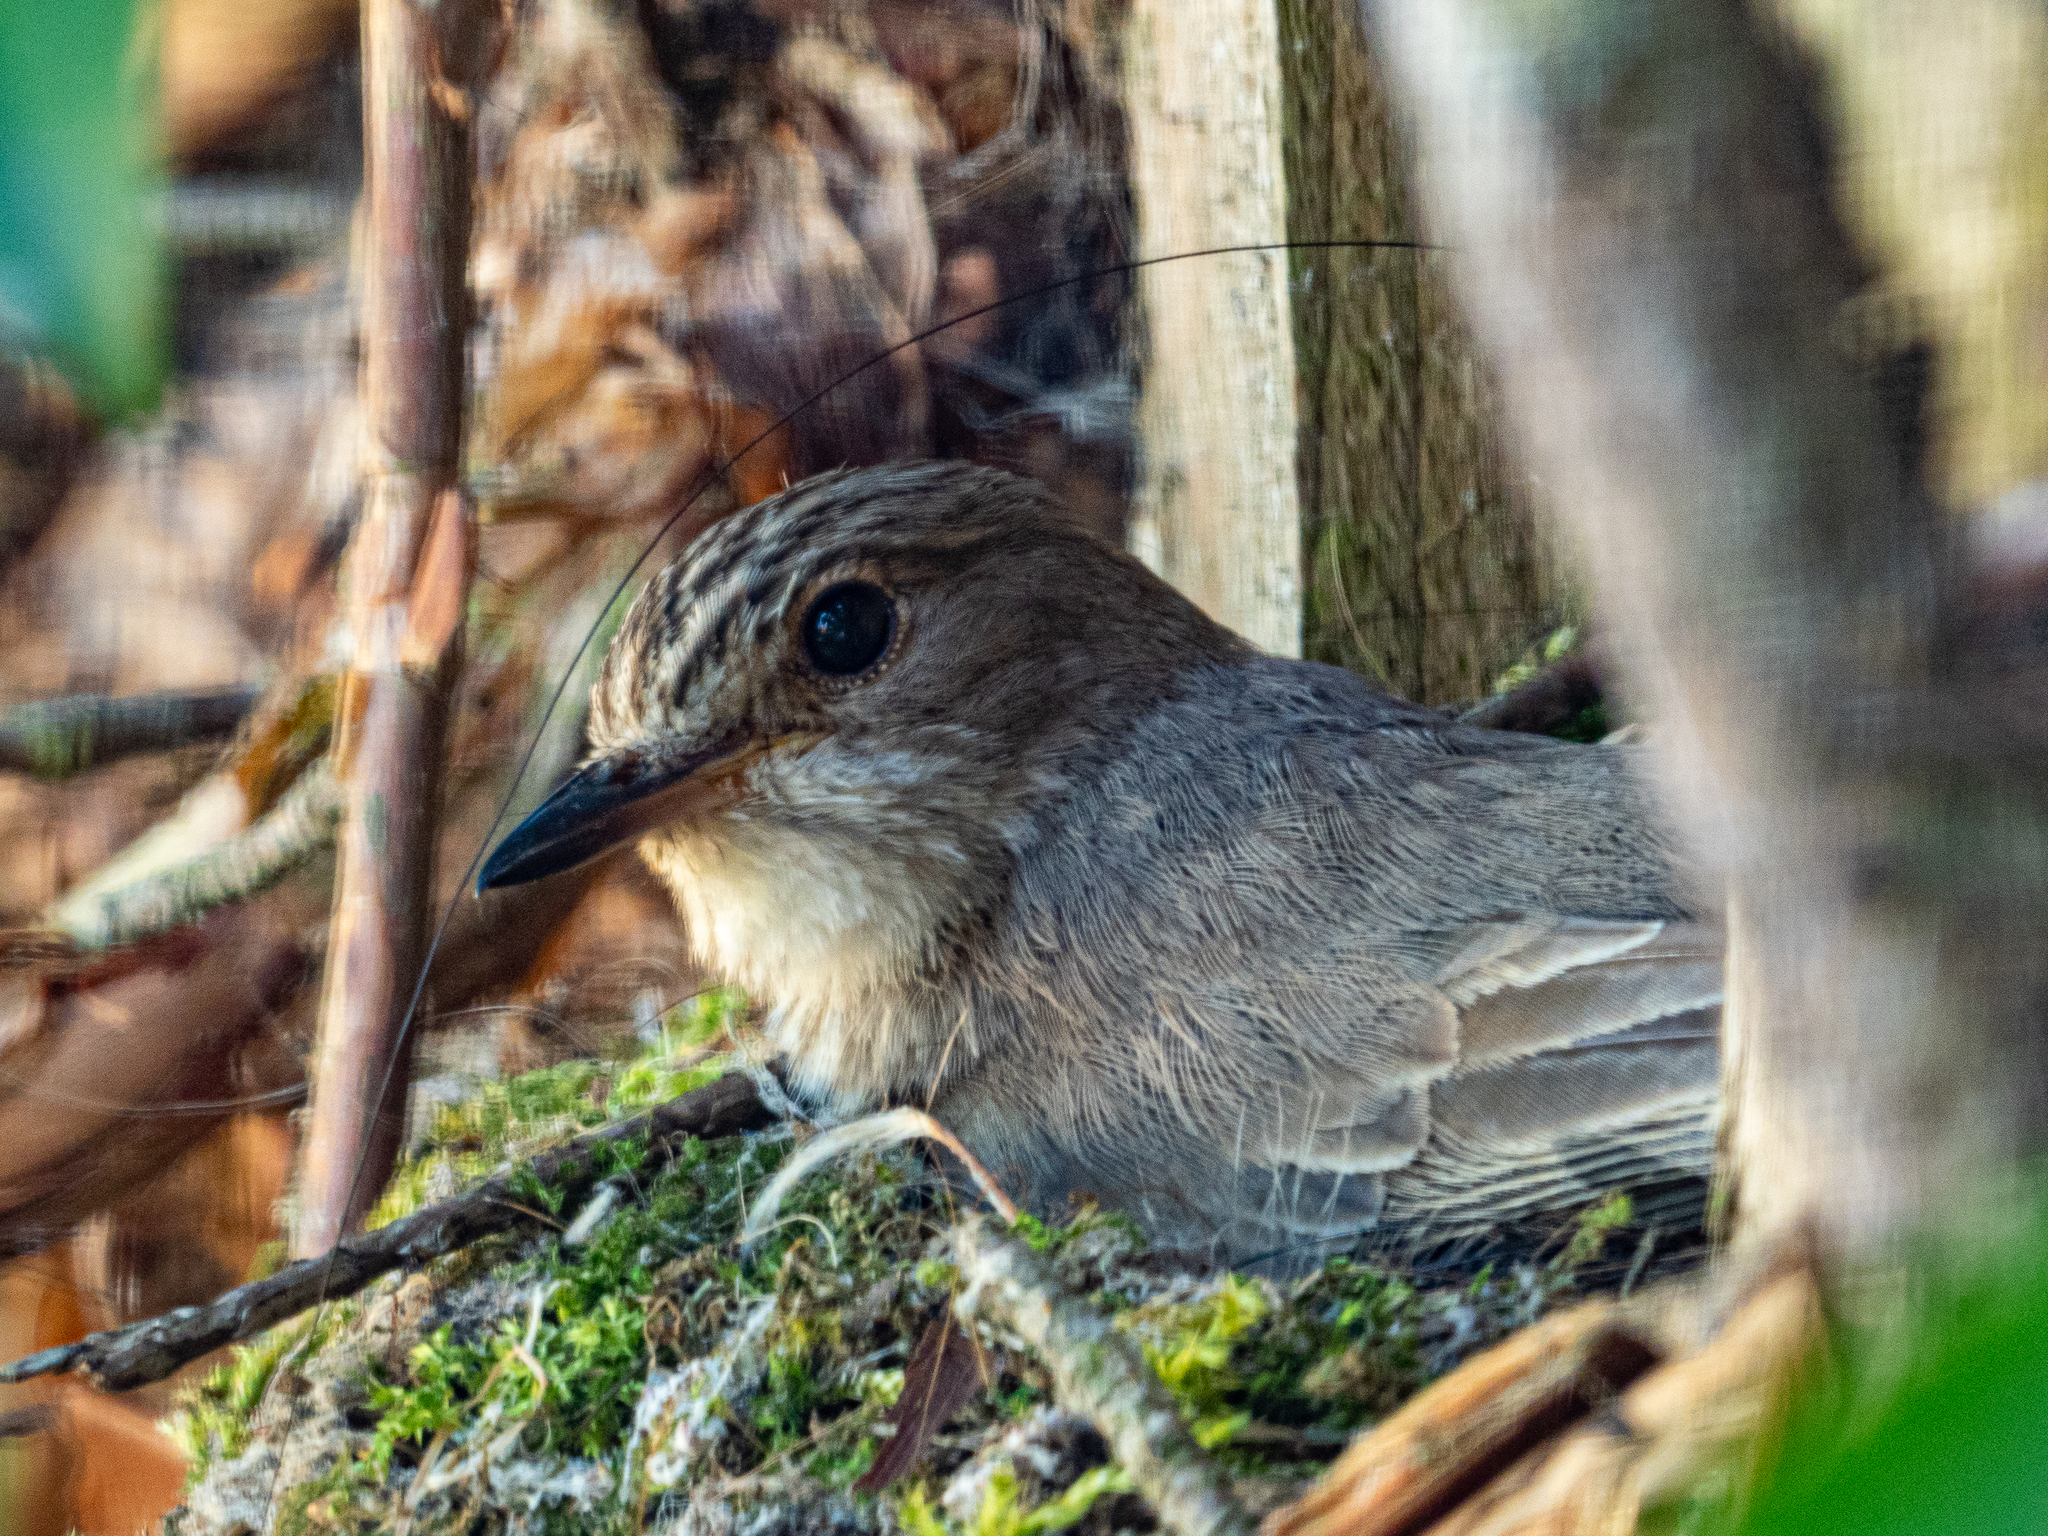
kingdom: Animalia
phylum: Chordata
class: Aves
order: Passeriformes
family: Muscicapidae
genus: Muscicapa
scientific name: Muscicapa striata
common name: Spotted flycatcher
